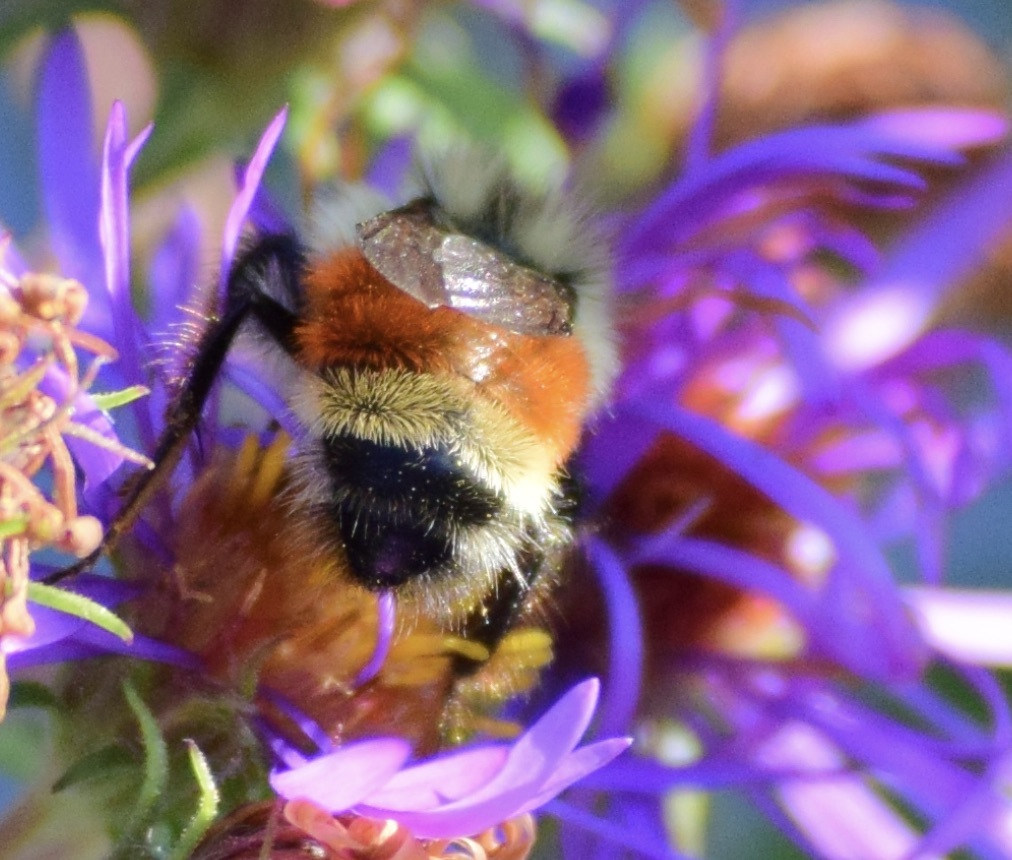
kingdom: Animalia
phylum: Arthropoda
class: Insecta
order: Hymenoptera
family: Apidae
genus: Bombus
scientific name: Bombus ternarius
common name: Tri-colored bumble bee
